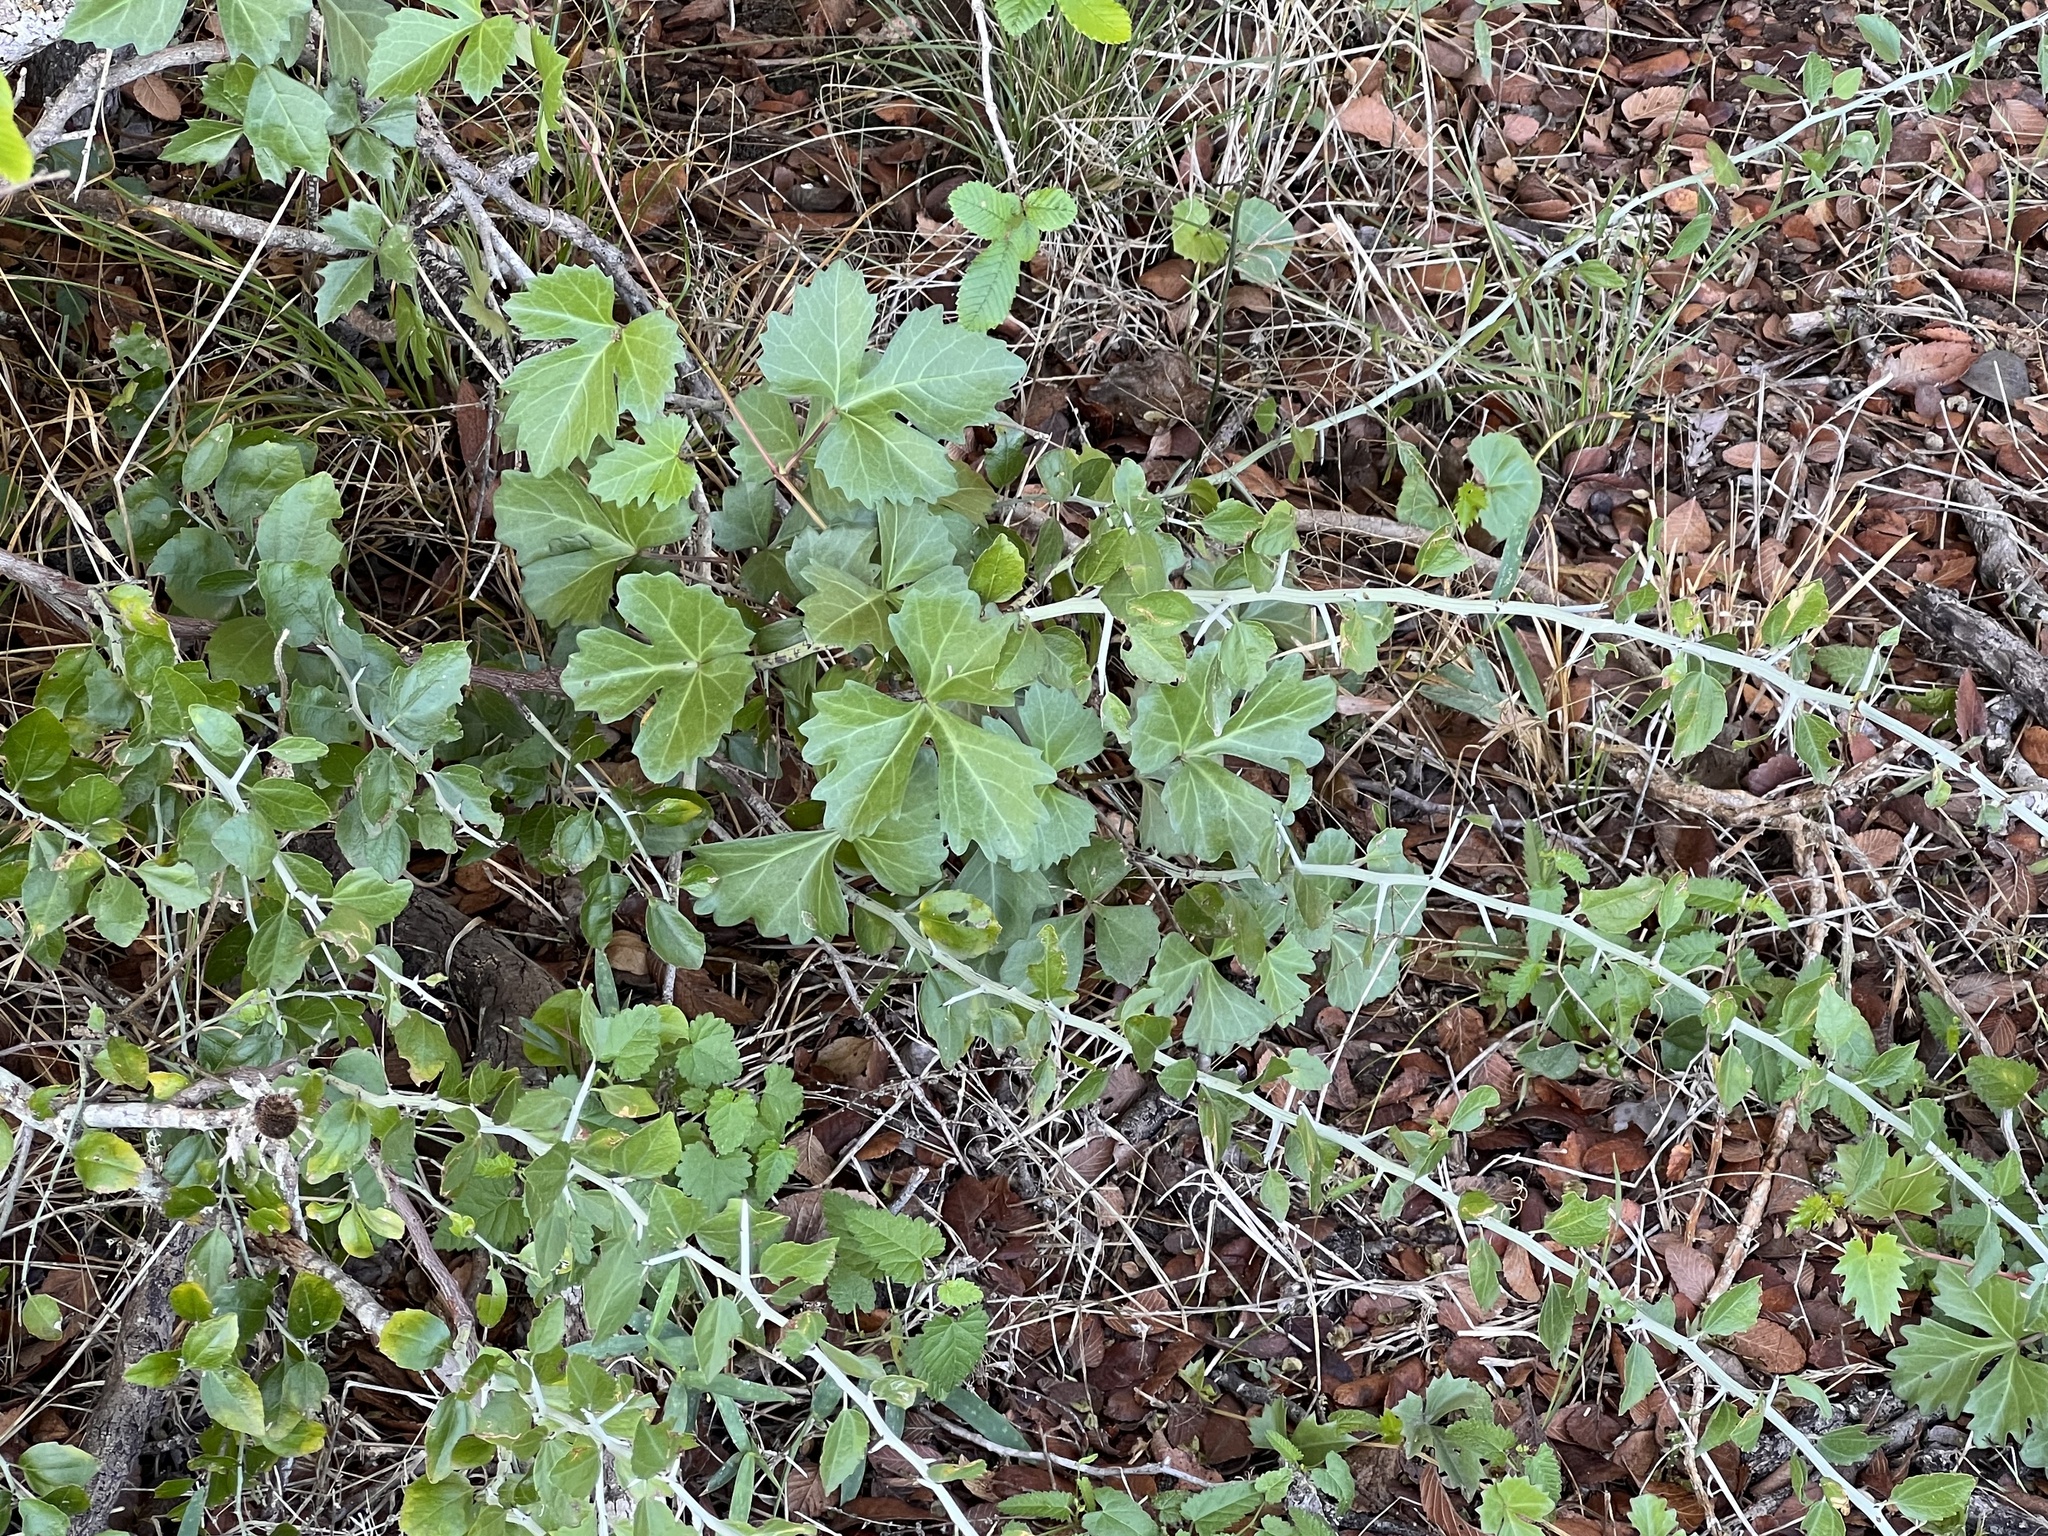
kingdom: Plantae
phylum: Tracheophyta
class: Magnoliopsida
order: Vitales
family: Vitaceae
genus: Cissus
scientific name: Cissus trifoliata
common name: Vine-sorrel
